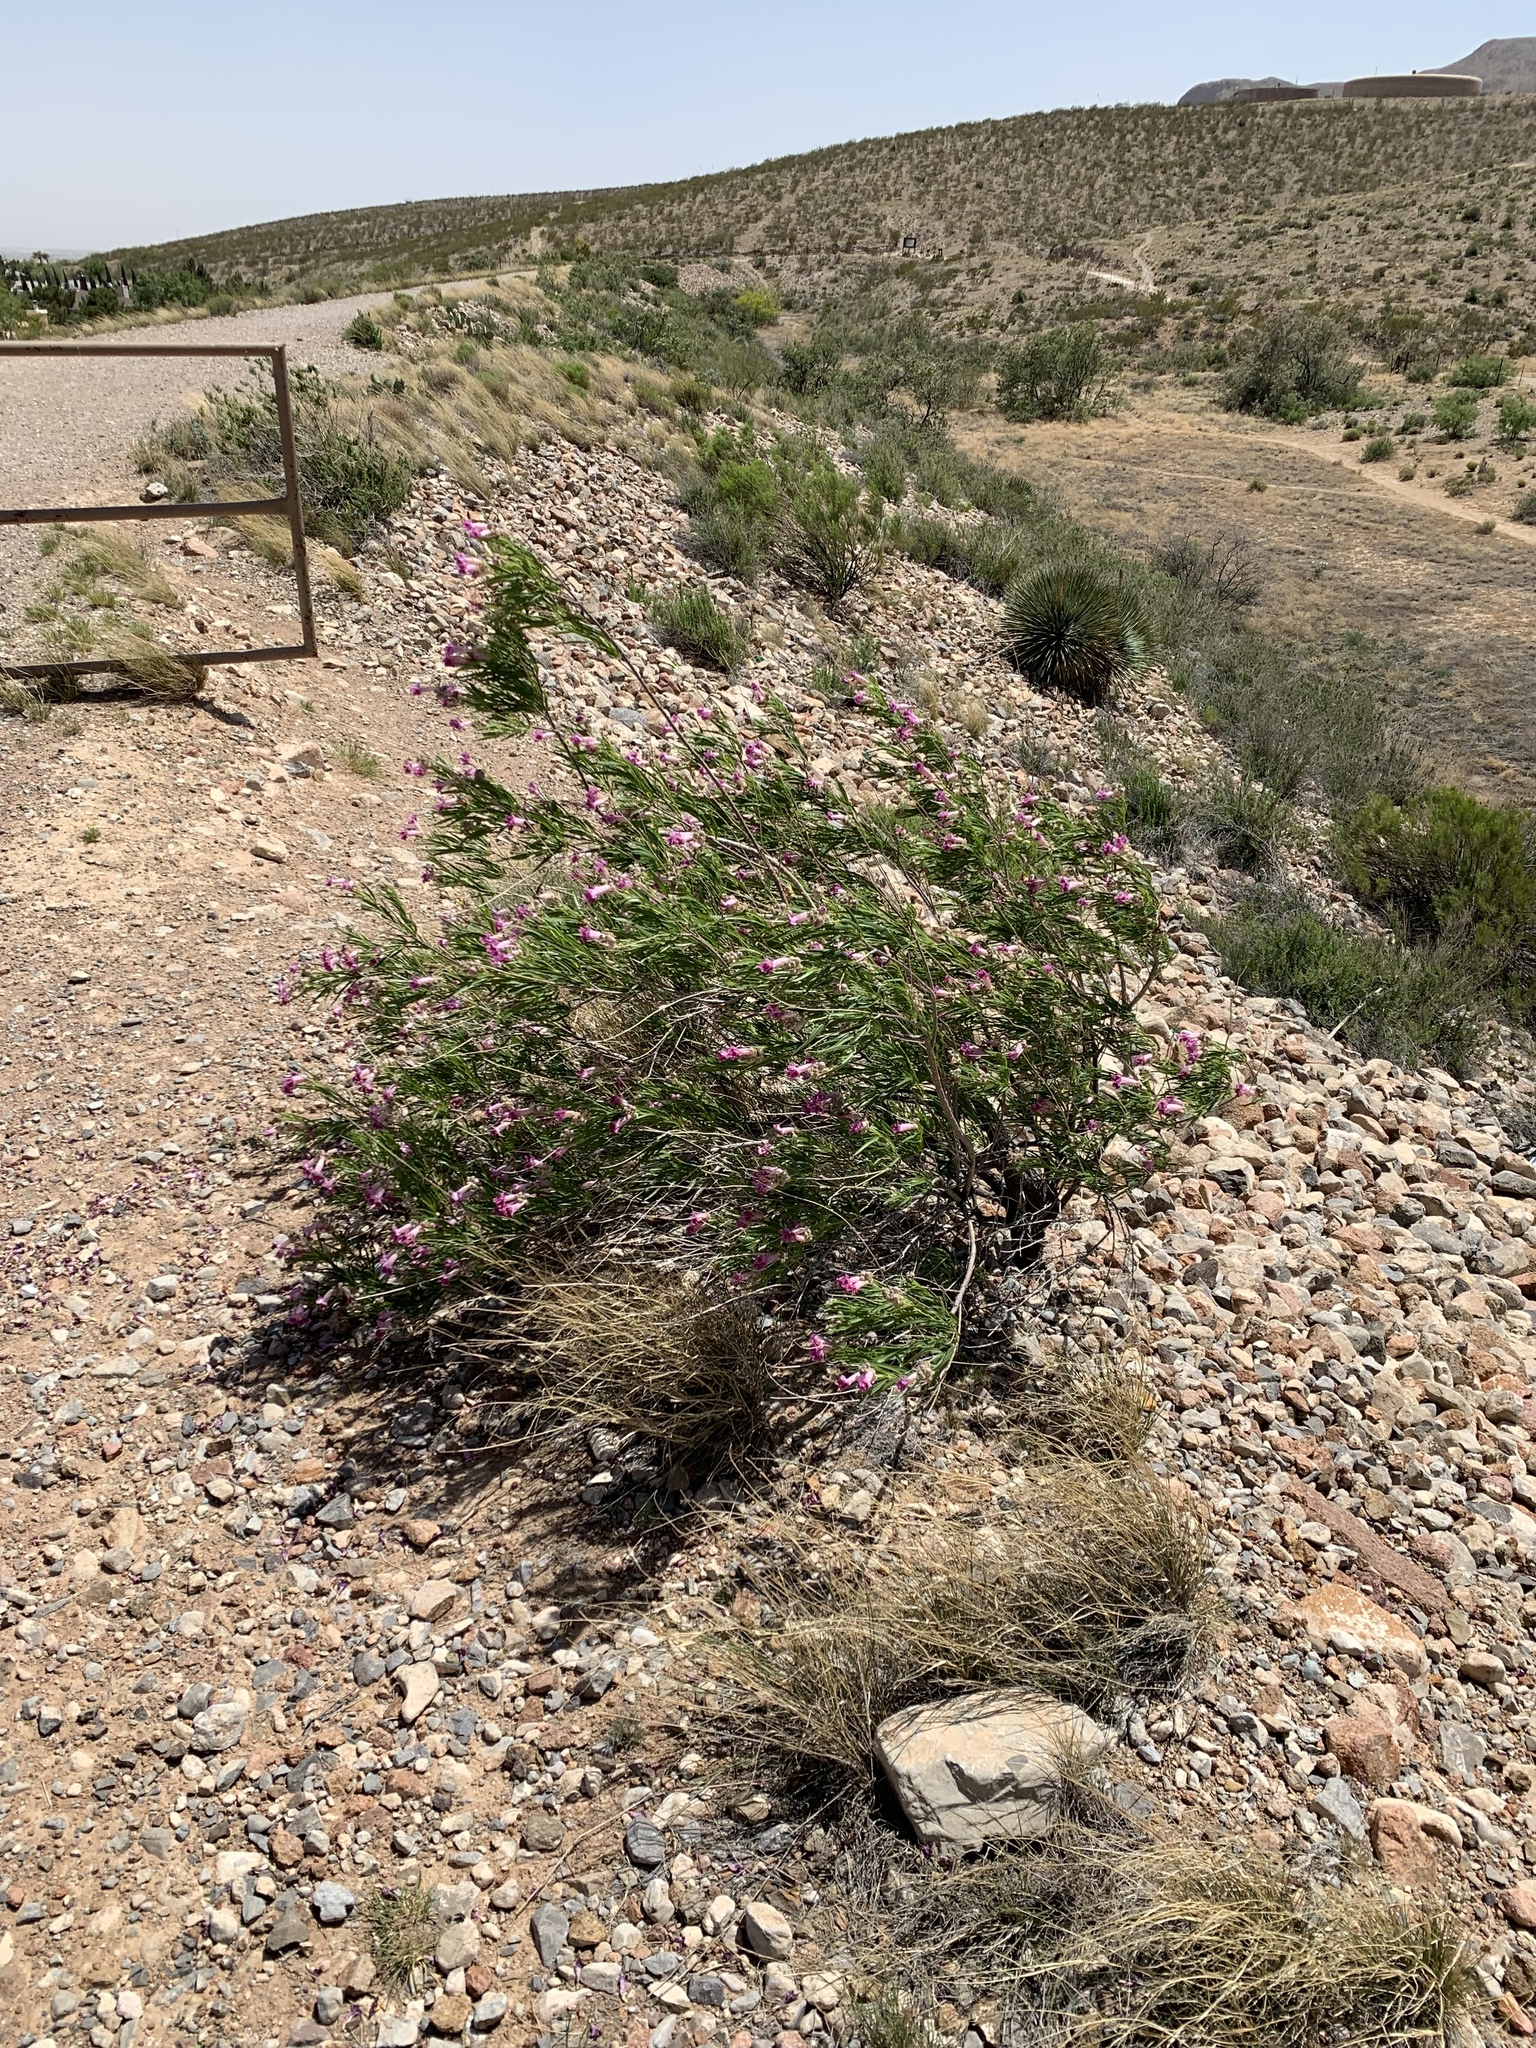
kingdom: Plantae
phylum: Tracheophyta
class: Magnoliopsida
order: Lamiales
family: Bignoniaceae
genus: Chilopsis
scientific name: Chilopsis linearis
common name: Desert-willow
